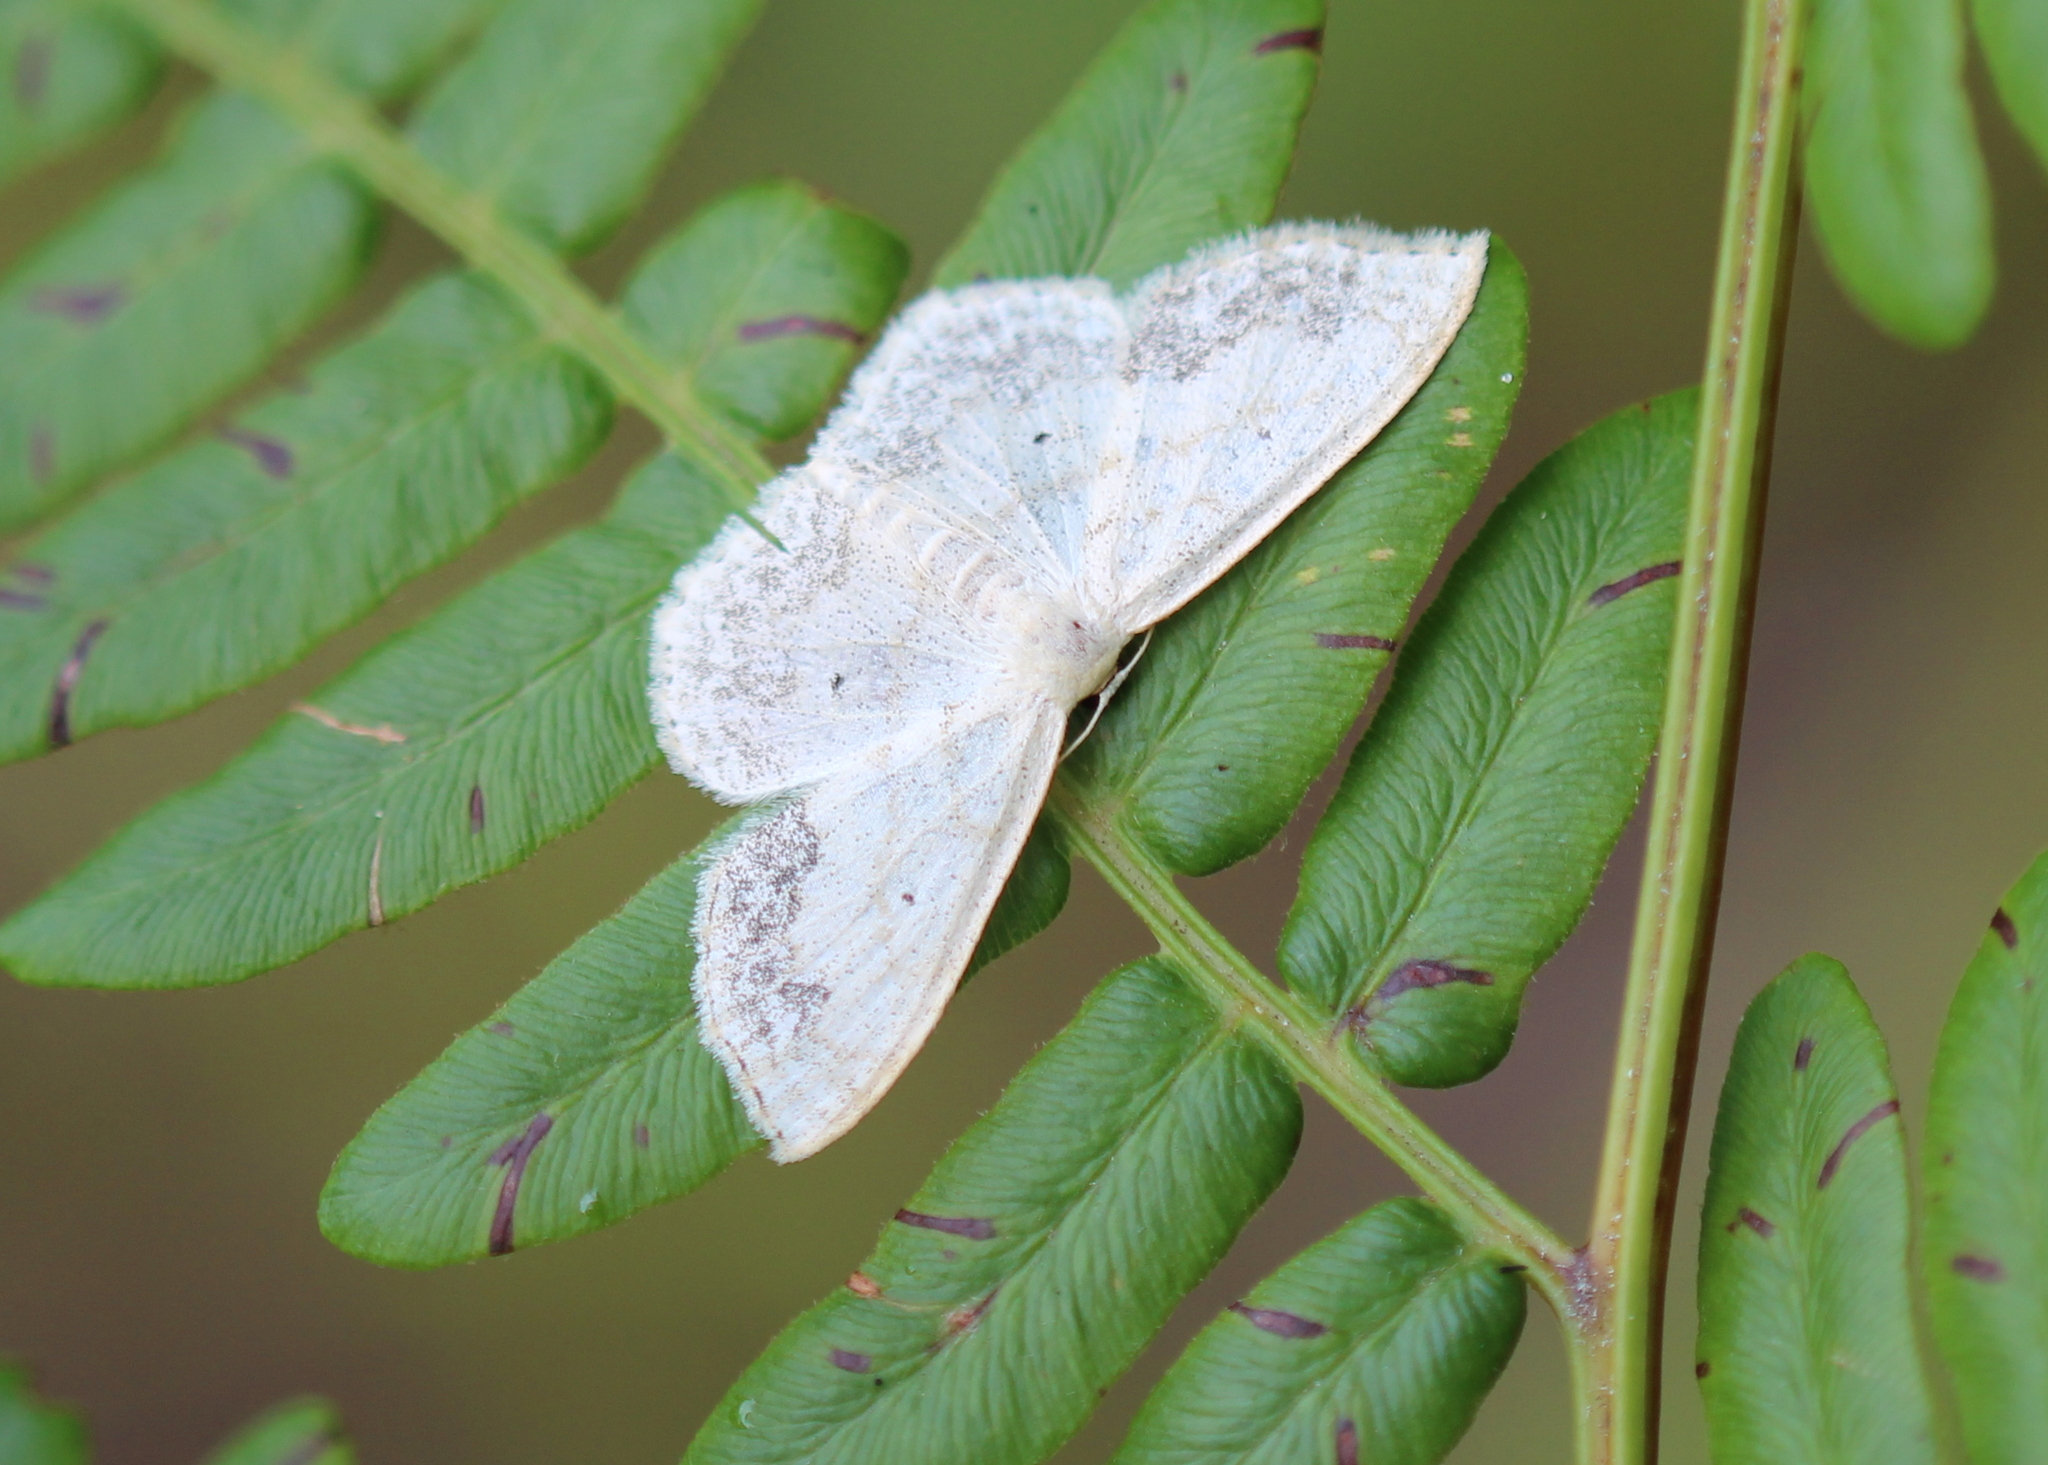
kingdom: Animalia
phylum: Arthropoda
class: Insecta
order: Lepidoptera
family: Geometridae
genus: Scopula
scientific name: Scopula limboundata
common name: Large lace border
